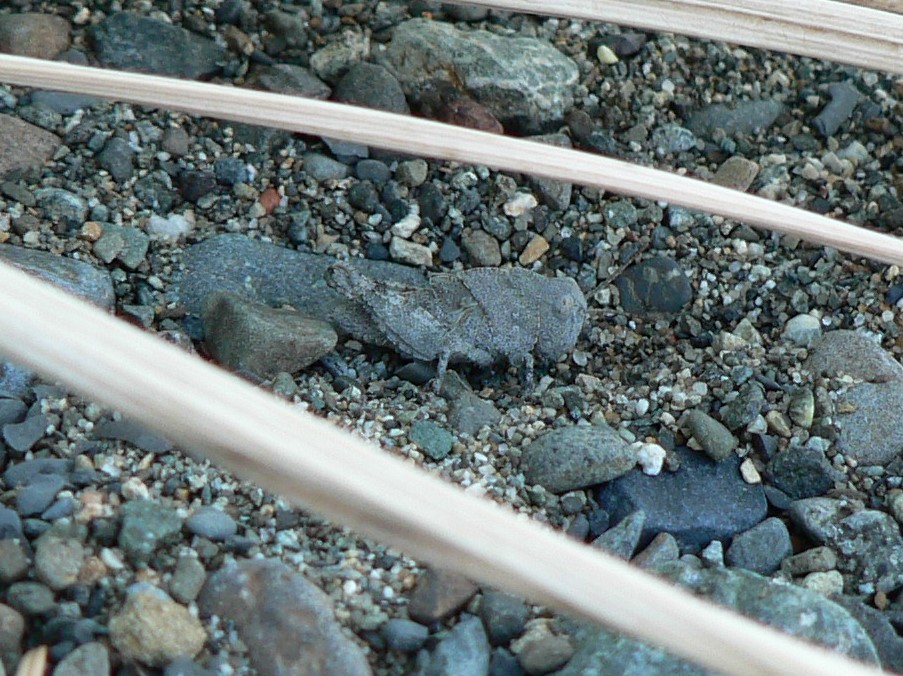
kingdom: Animalia
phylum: Arthropoda
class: Insecta
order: Orthoptera
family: Acrididae
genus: Dissosteira
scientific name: Dissosteira carolina
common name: Carolina grasshopper
